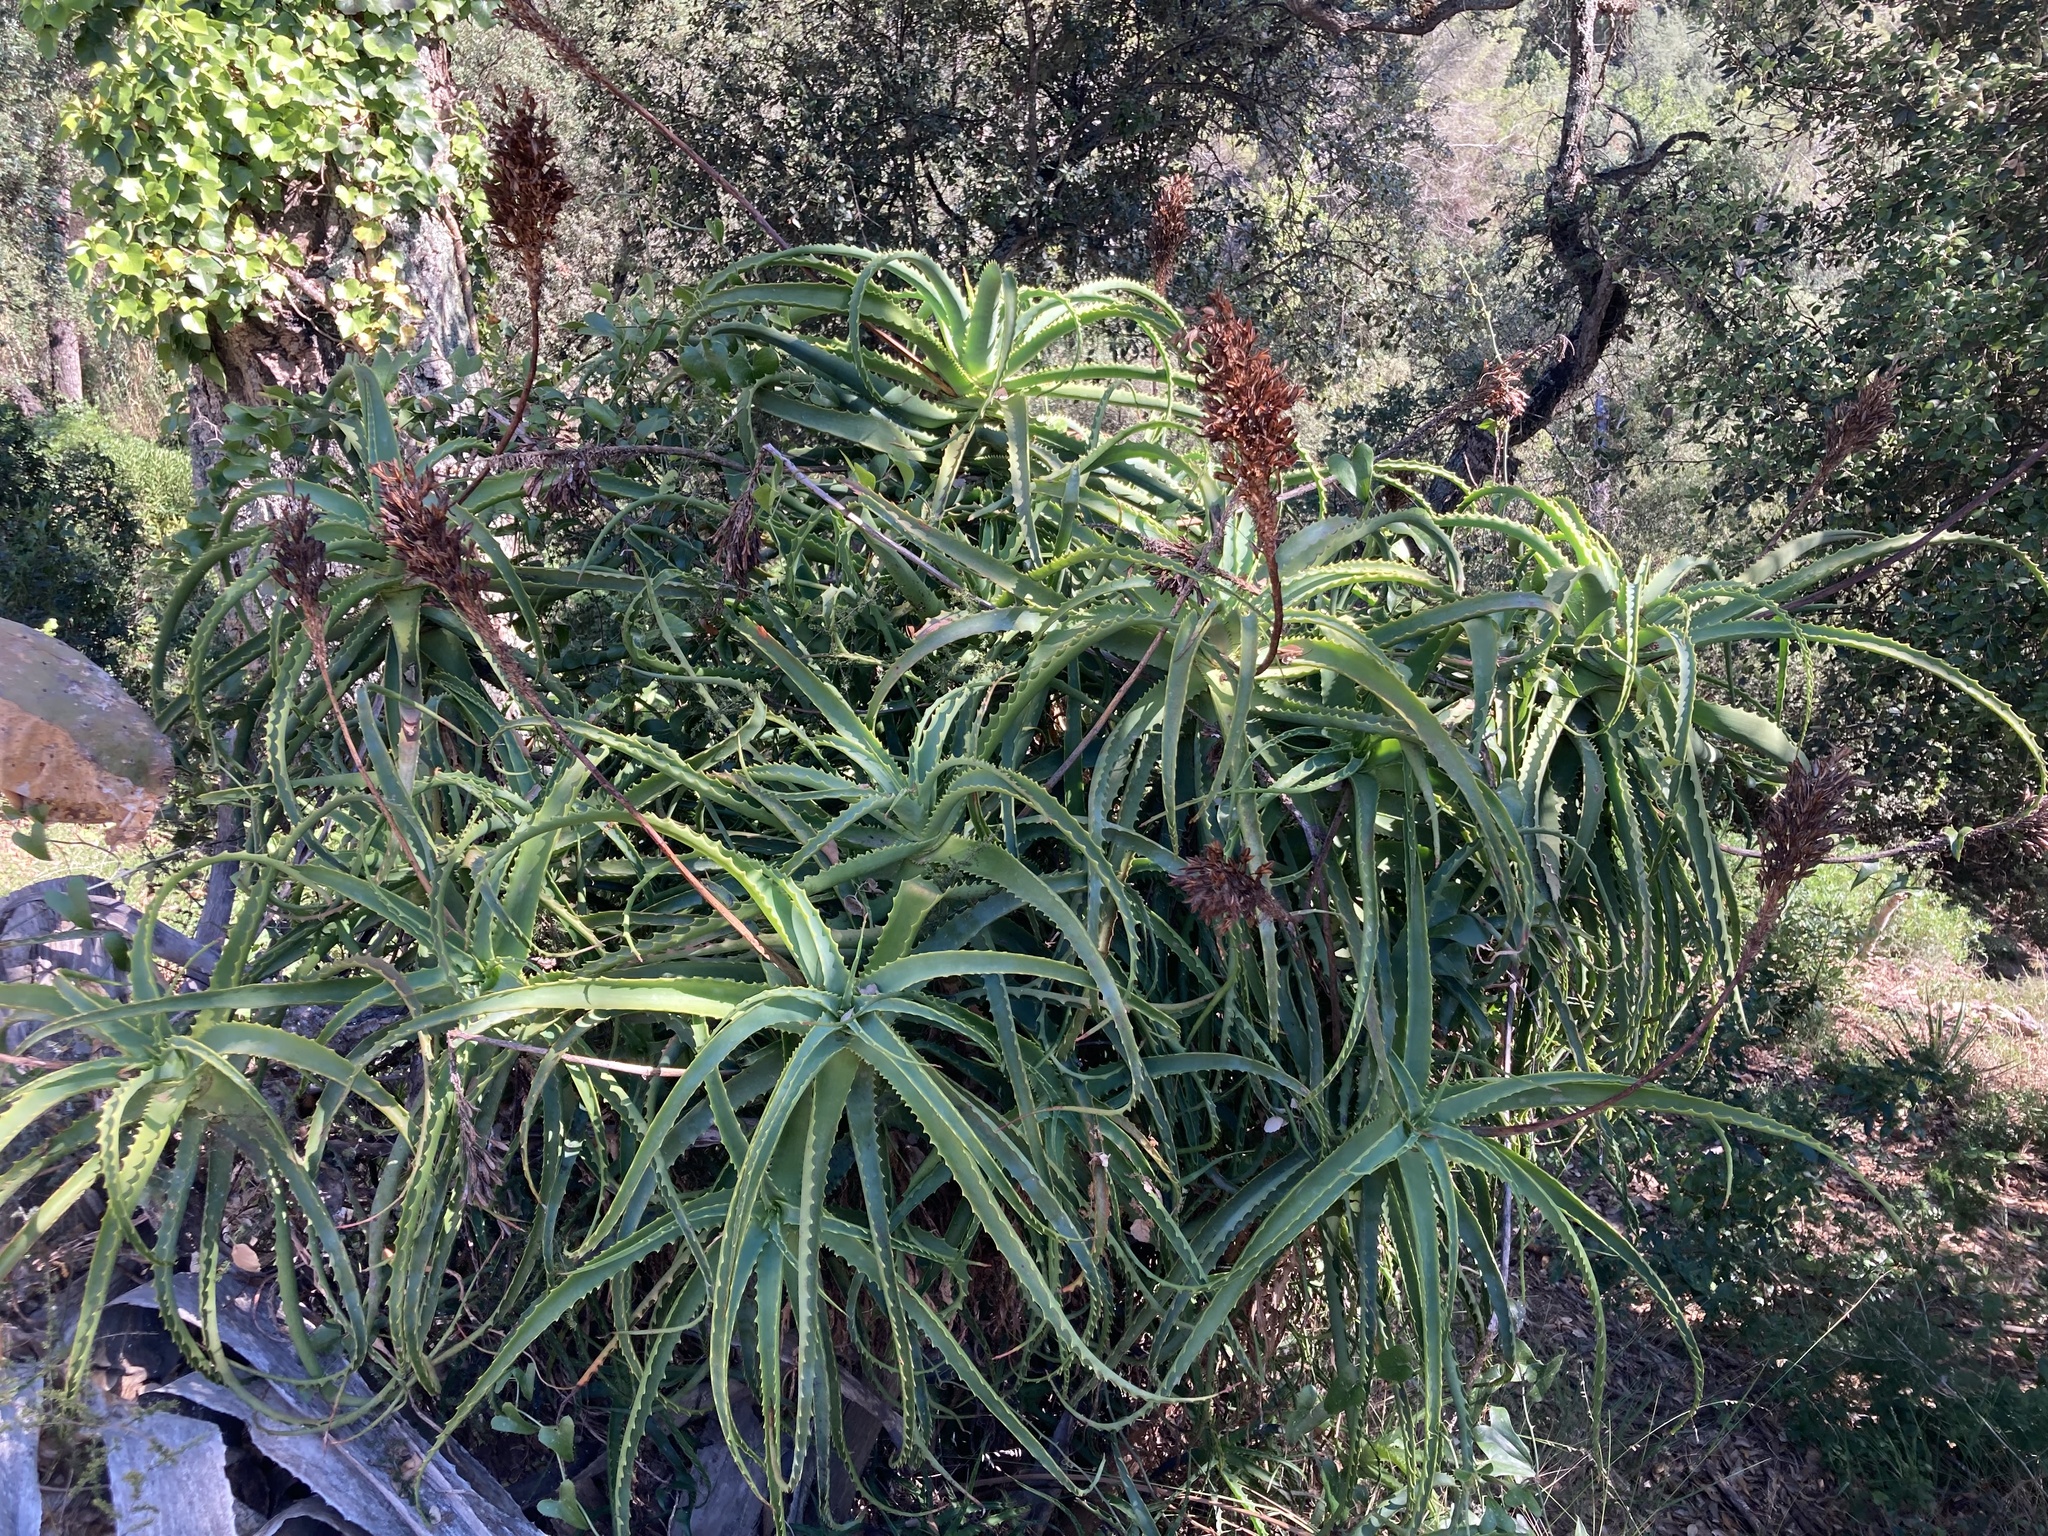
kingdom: Plantae
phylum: Tracheophyta
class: Liliopsida
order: Asparagales
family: Asphodelaceae
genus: Aloe
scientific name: Aloe arborescens
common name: Candelabra aloe
